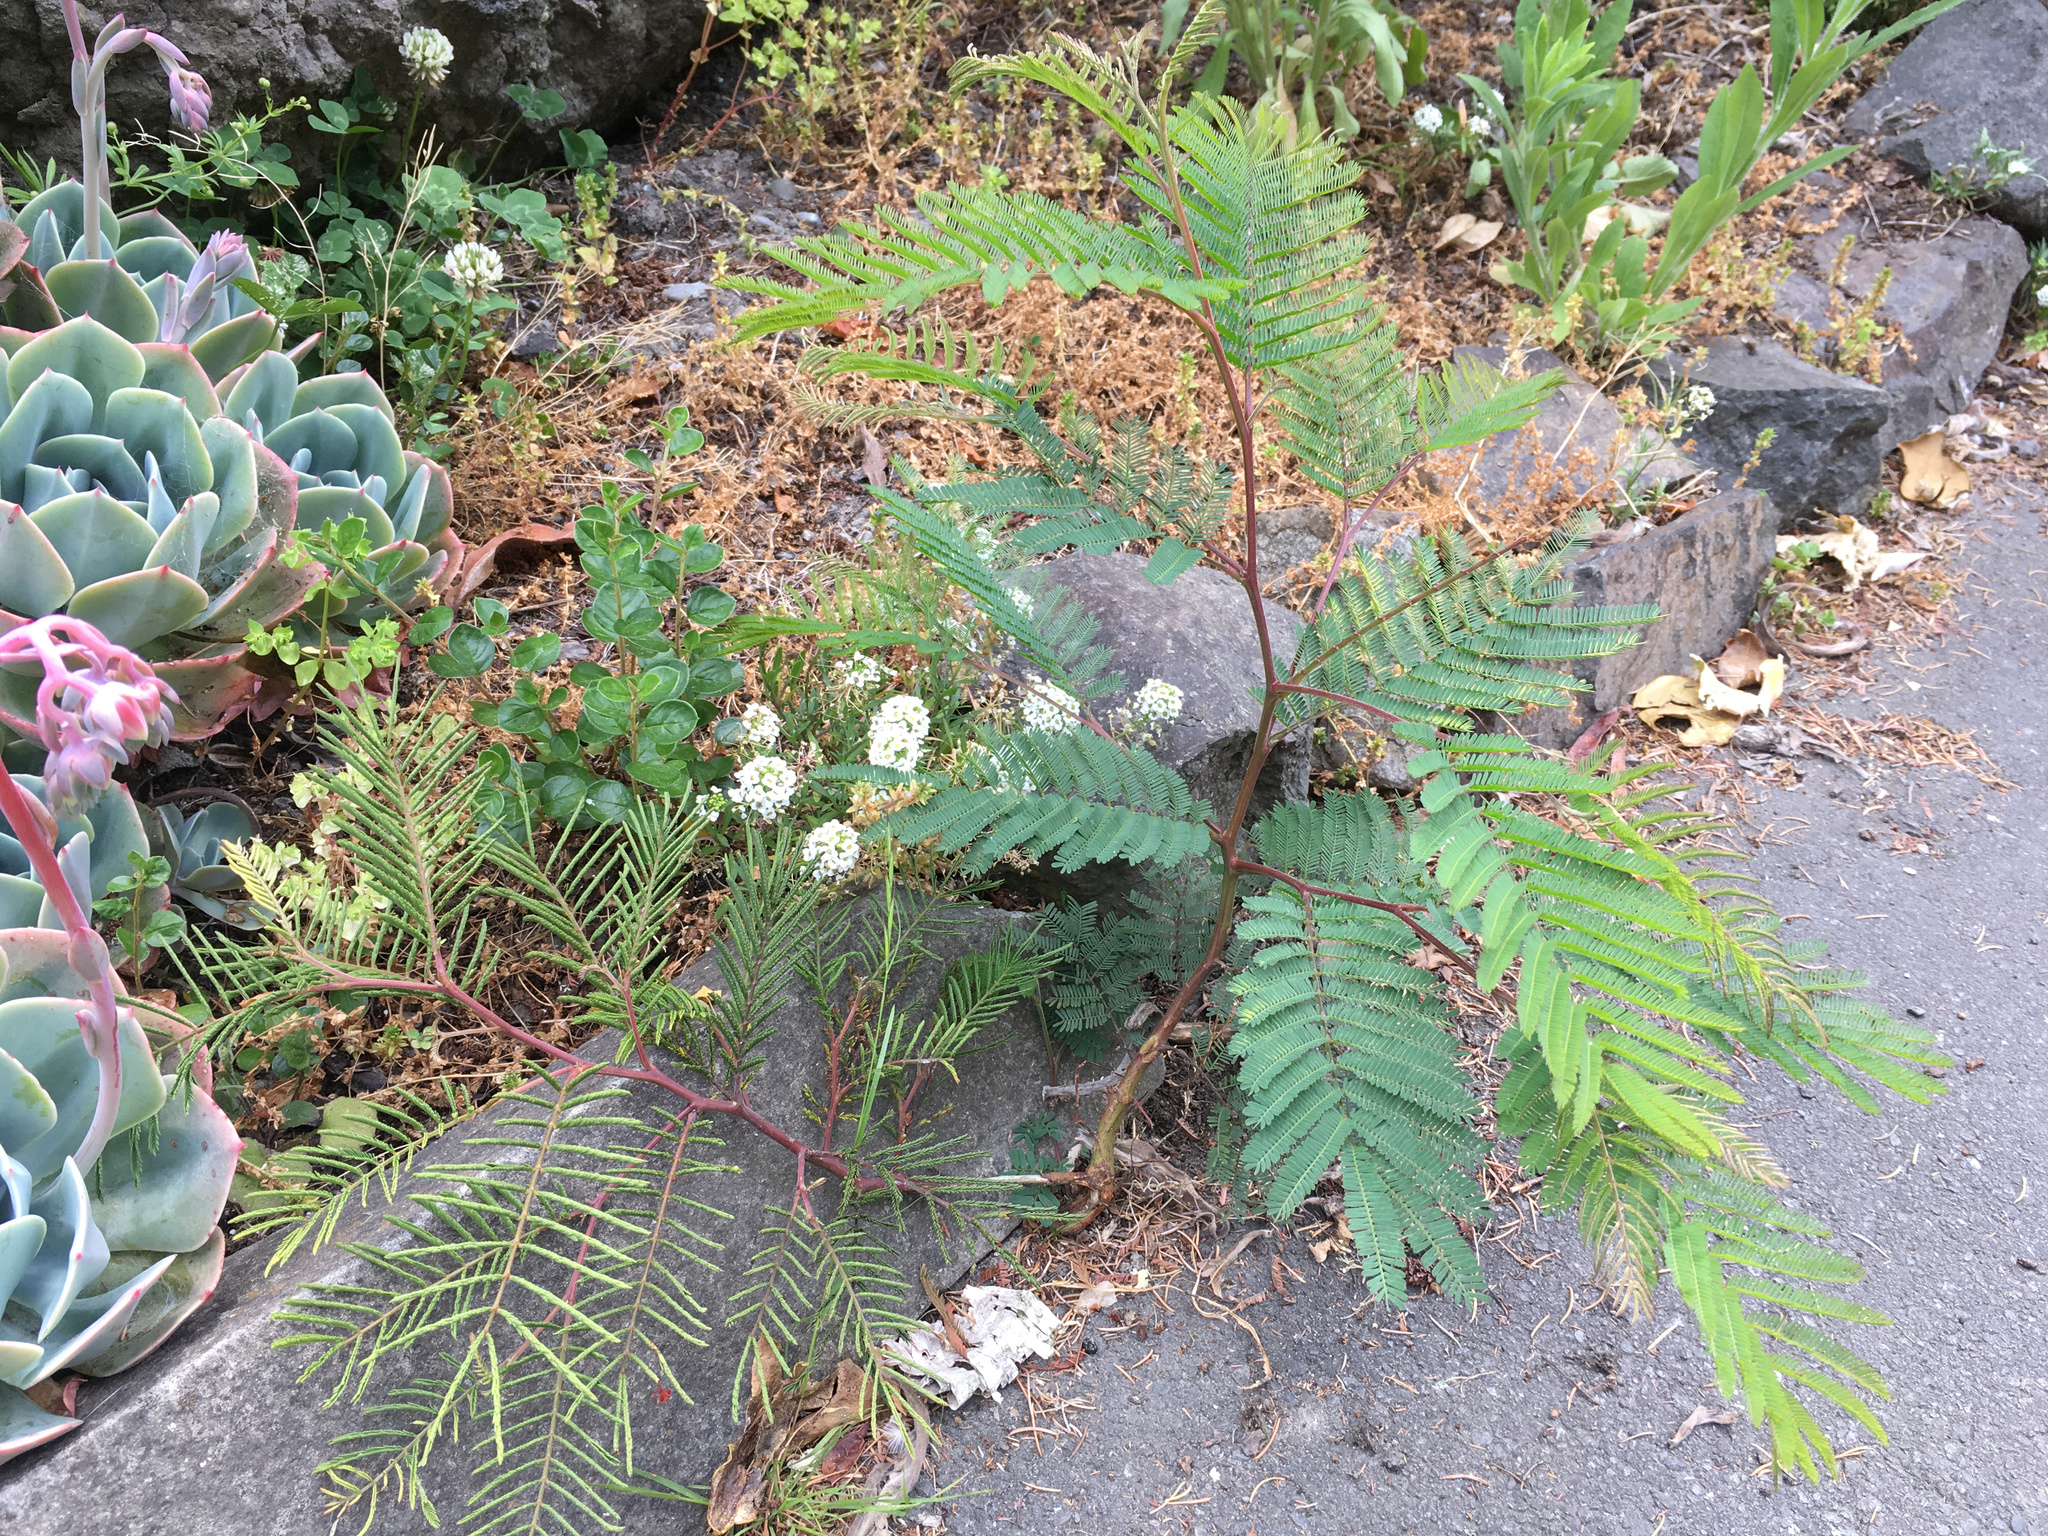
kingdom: Plantae
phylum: Tracheophyta
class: Magnoliopsida
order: Fabales
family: Fabaceae
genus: Paraserianthes
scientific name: Paraserianthes lophantha
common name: Plume albizia
